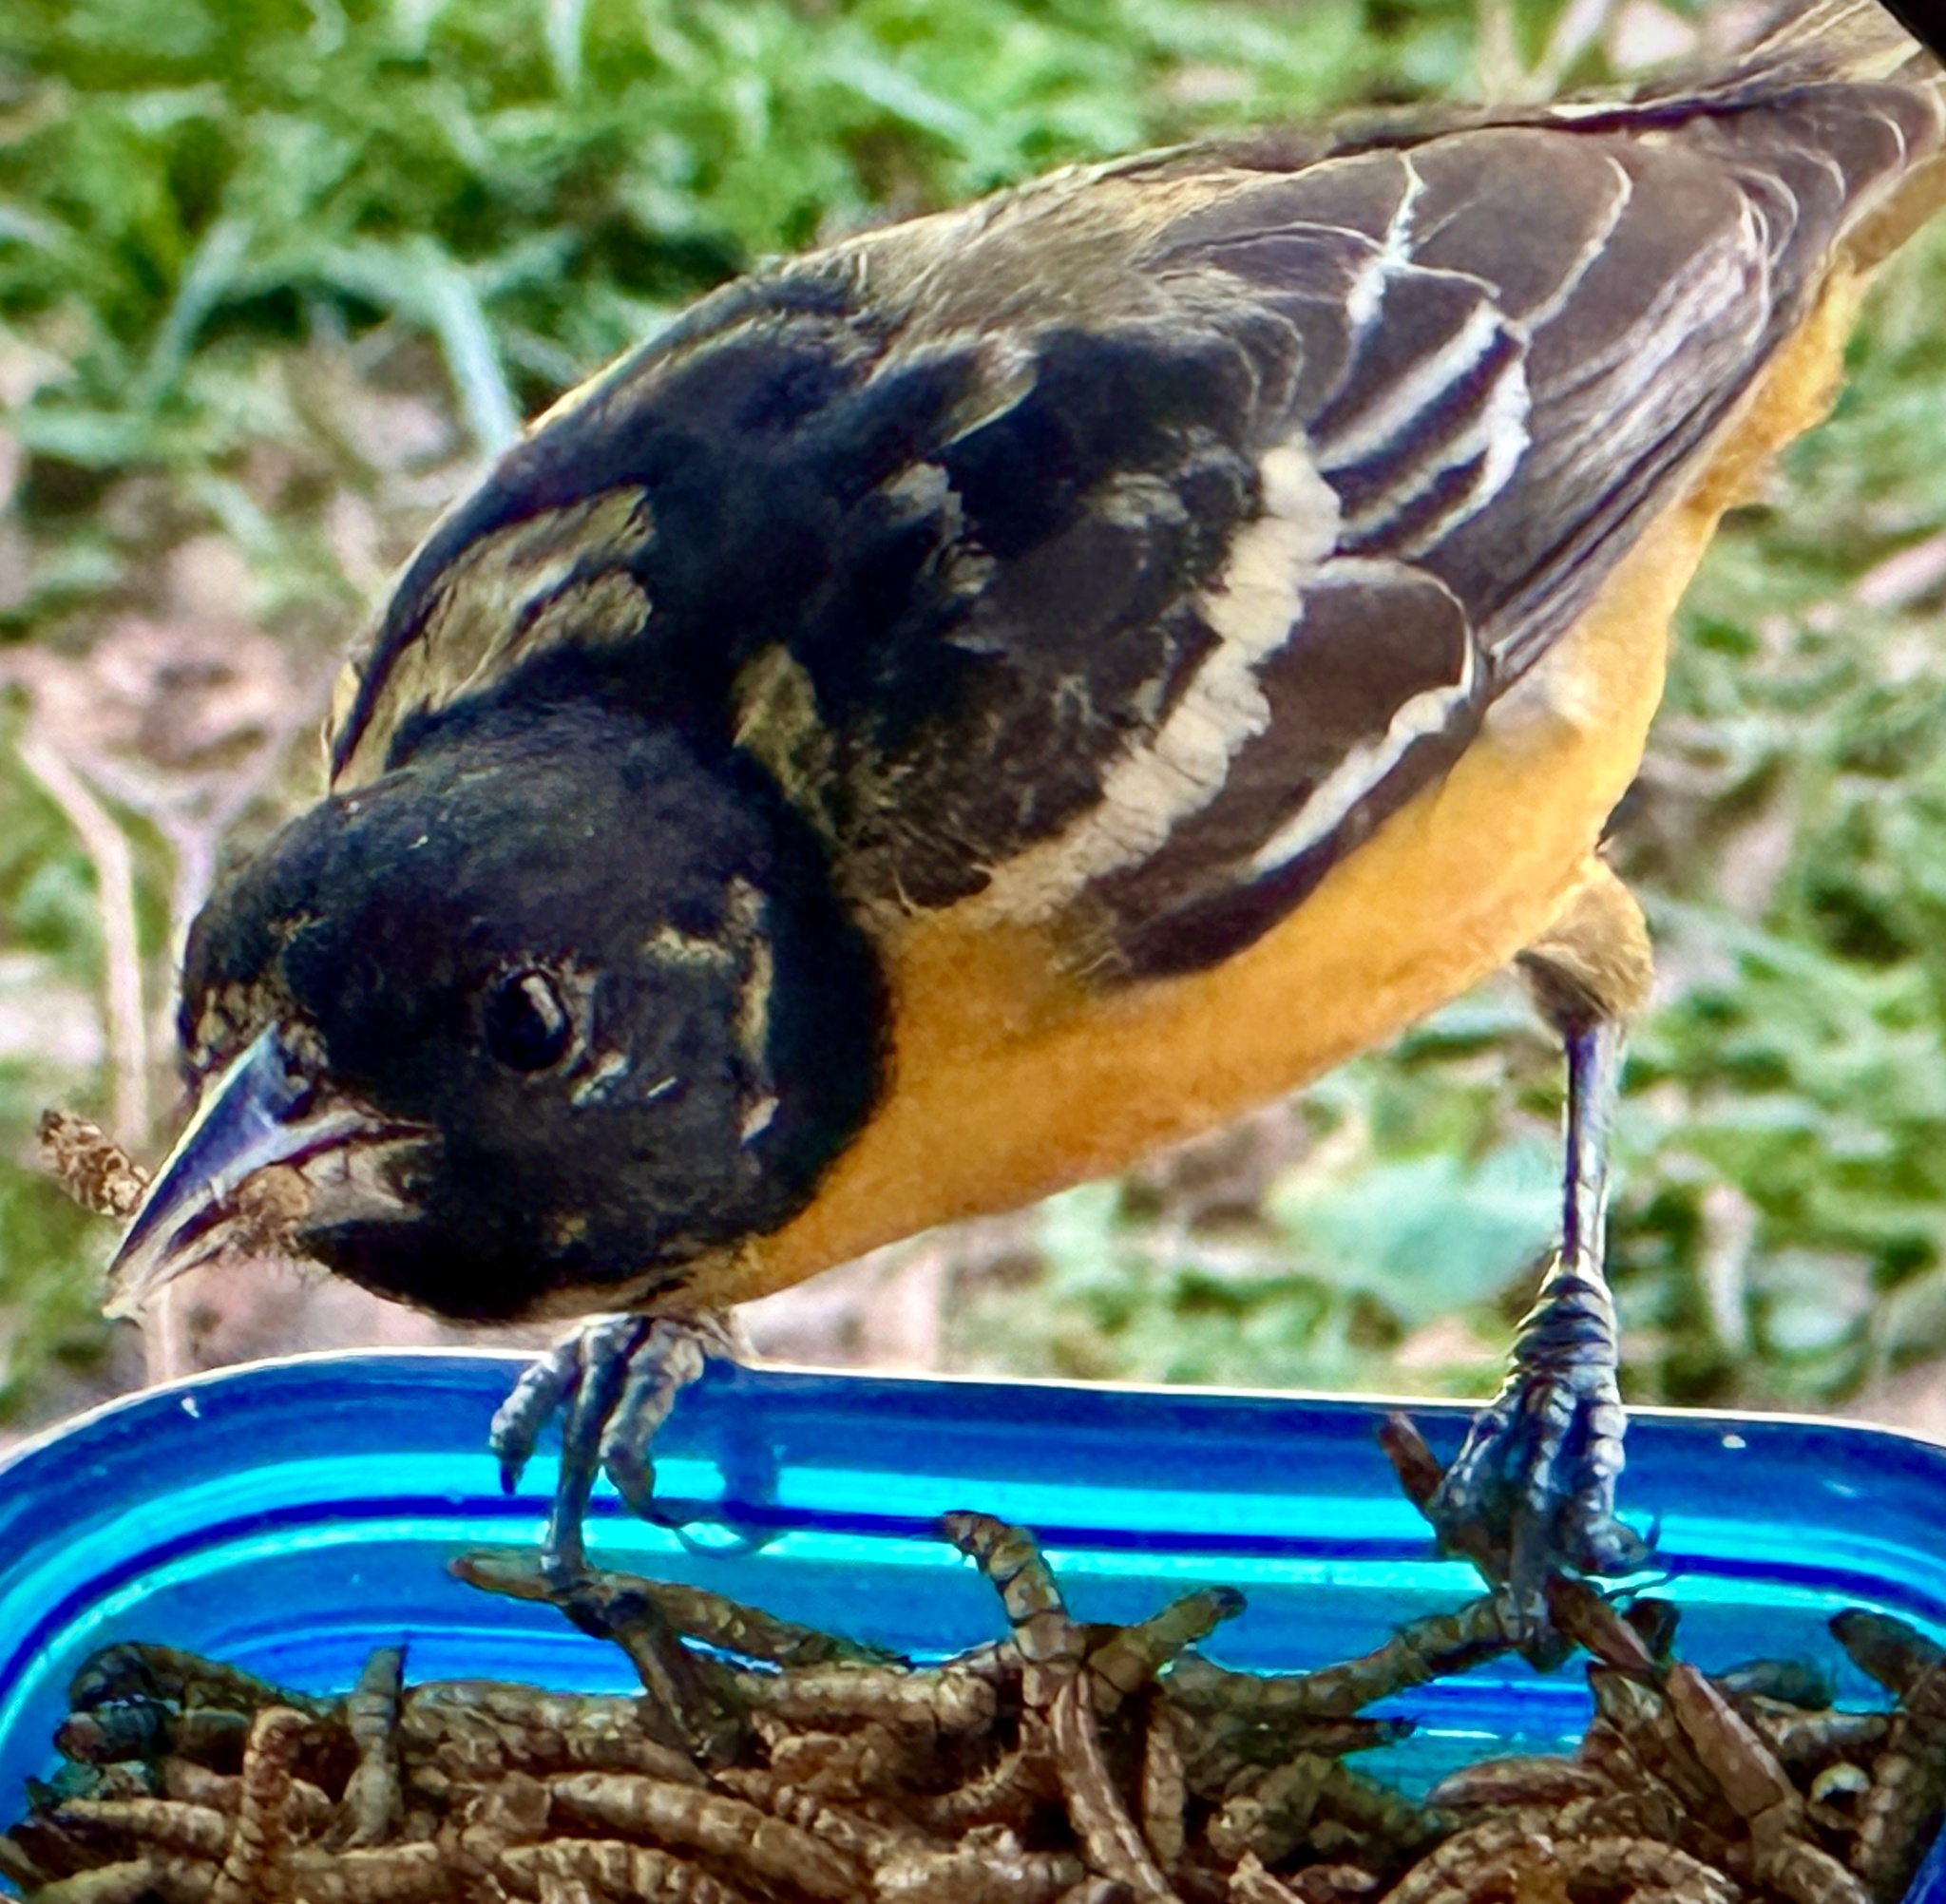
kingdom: Animalia
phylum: Chordata
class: Aves
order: Passeriformes
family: Icteridae
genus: Icterus
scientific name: Icterus galbula
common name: Baltimore oriole
